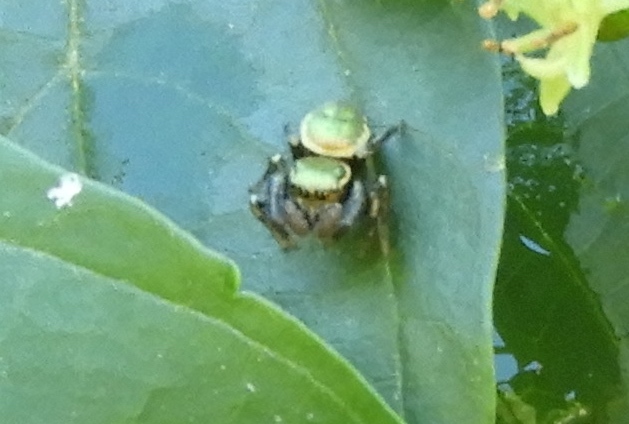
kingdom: Animalia
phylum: Arthropoda
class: Arachnida
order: Araneae
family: Salticidae
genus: Messua
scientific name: Messua
